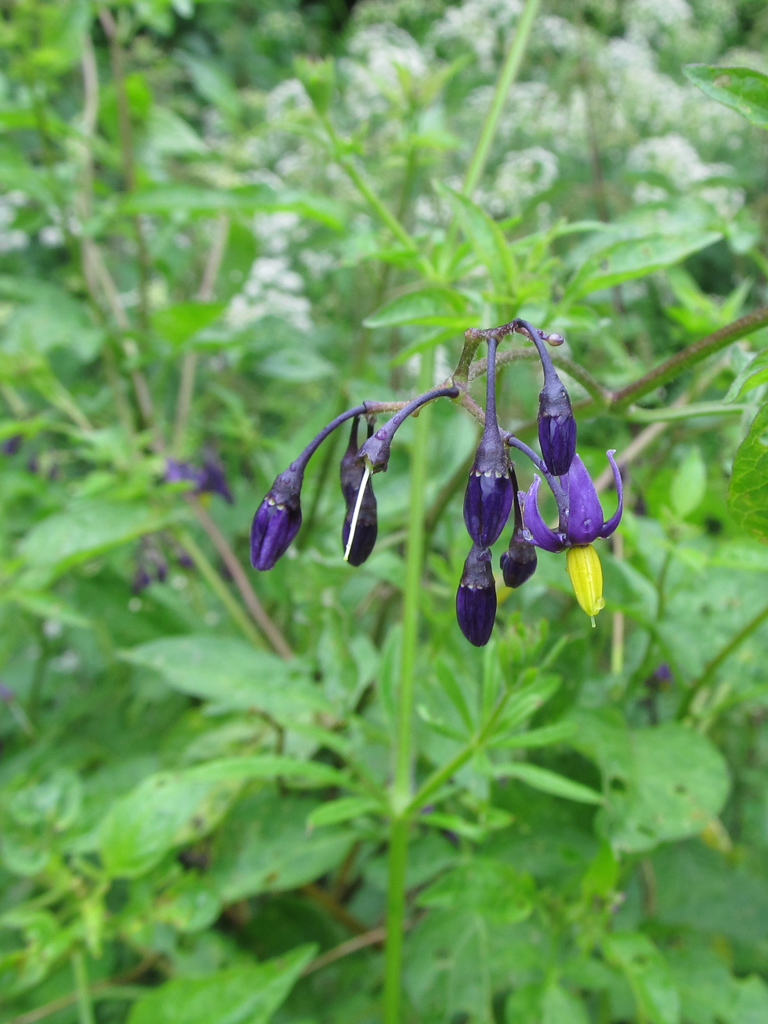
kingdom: Plantae
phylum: Tracheophyta
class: Magnoliopsida
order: Solanales
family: Solanaceae
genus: Solanum
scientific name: Solanum dulcamara
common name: Climbing nightshade
